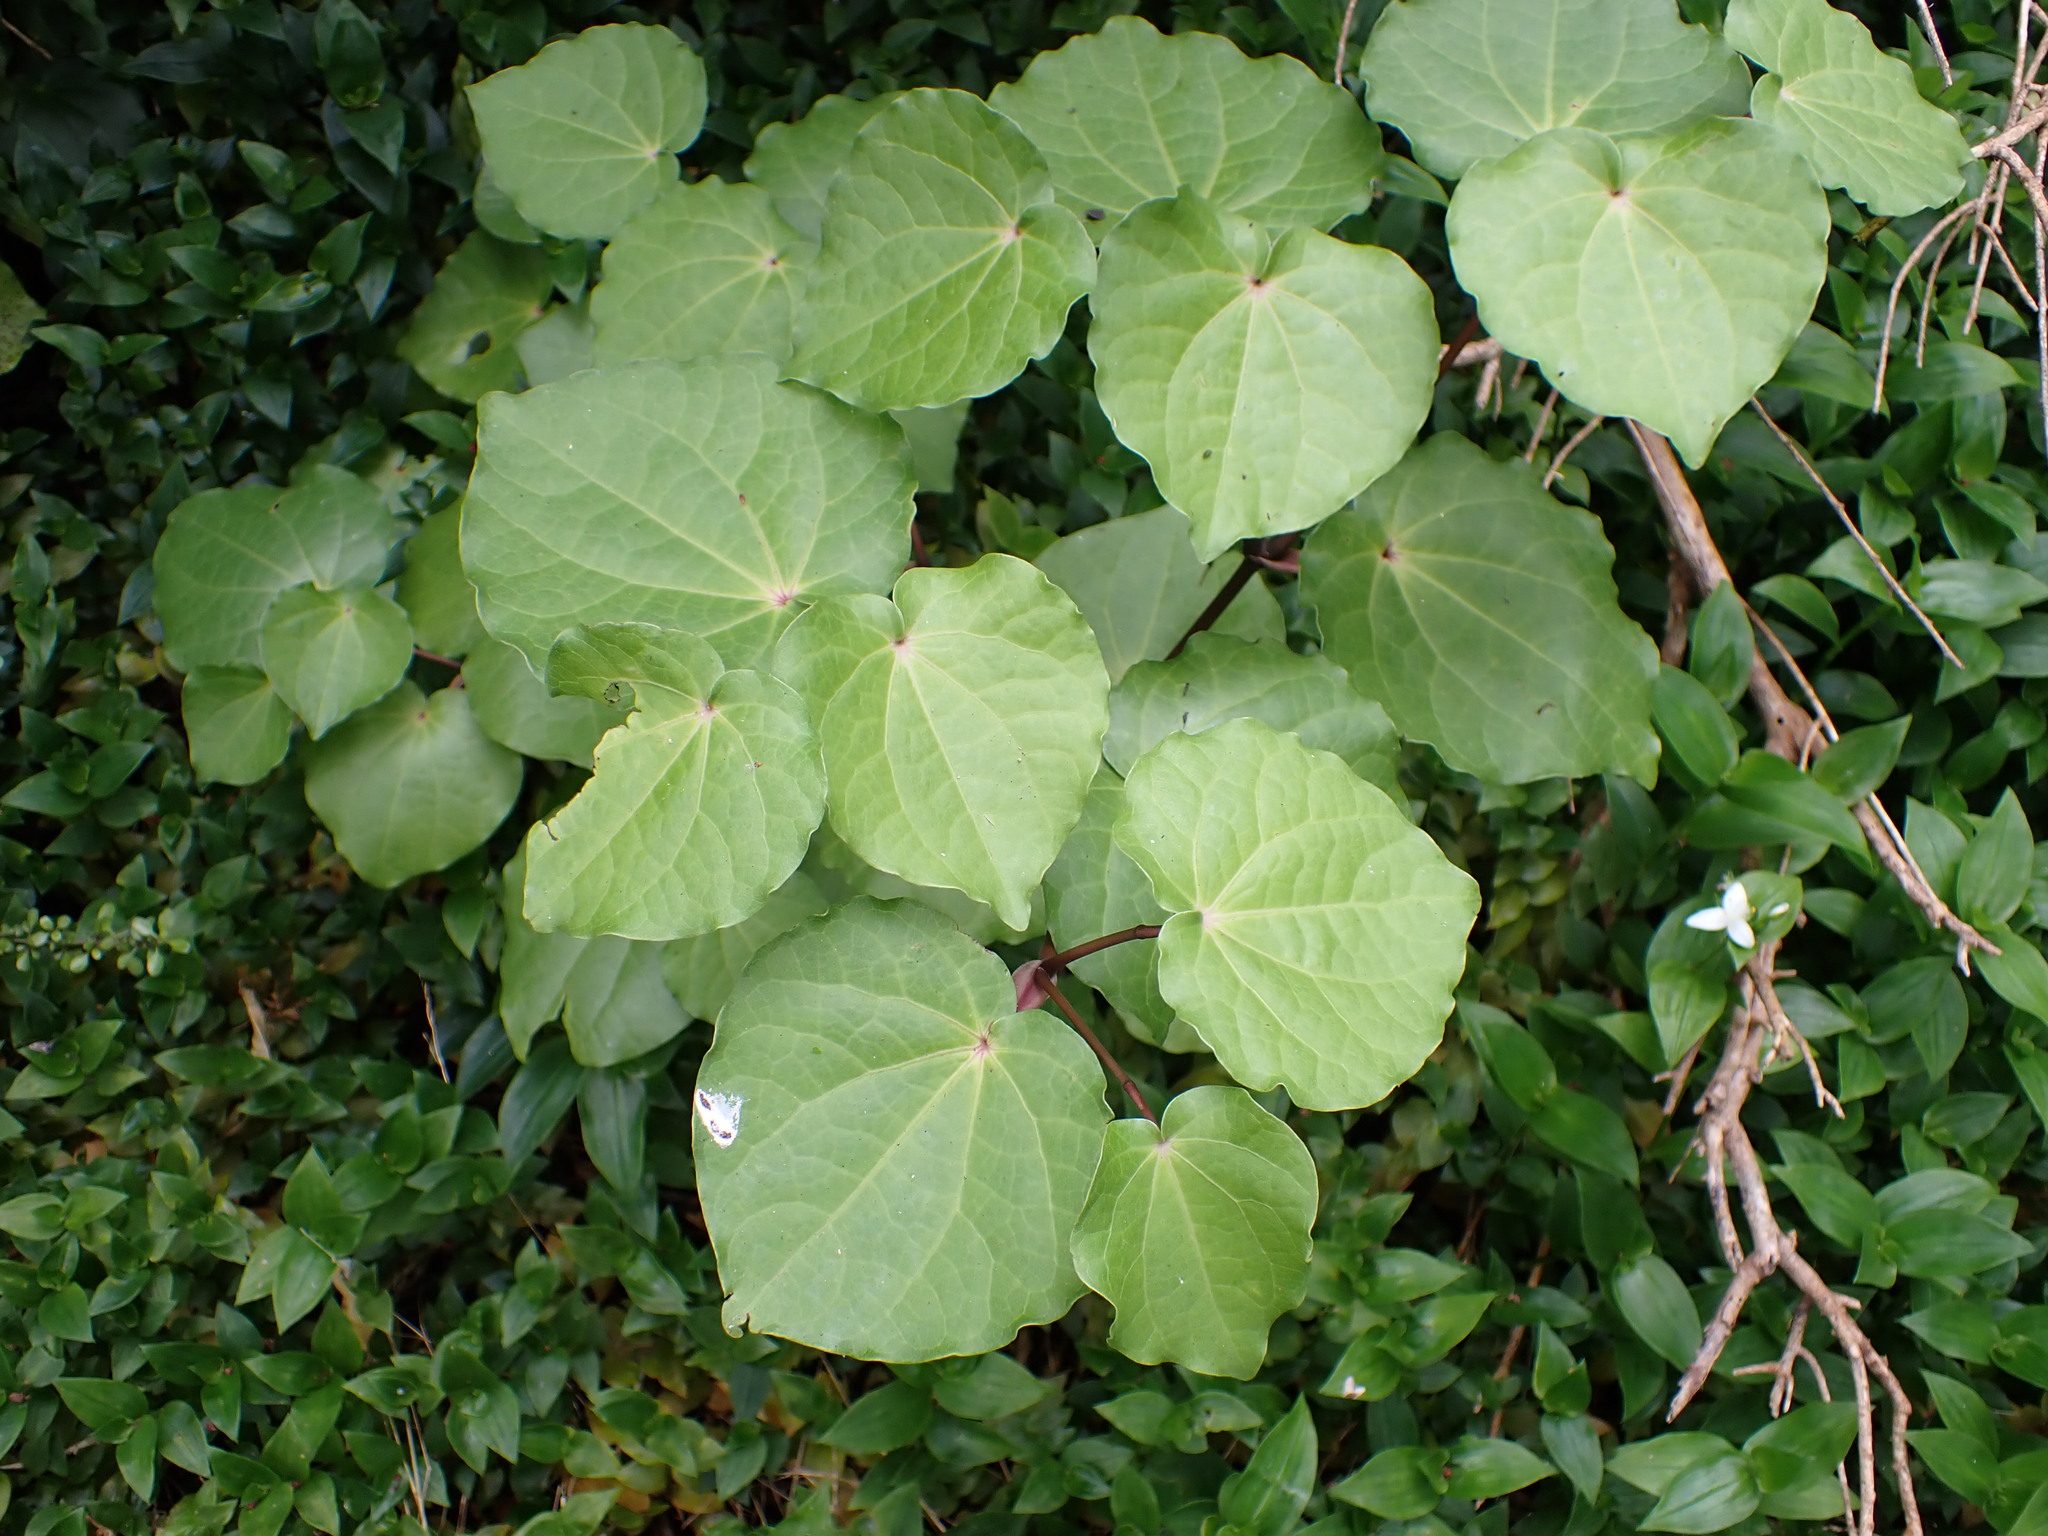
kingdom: Plantae
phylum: Tracheophyta
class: Magnoliopsida
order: Piperales
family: Piperaceae
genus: Macropiper
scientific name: Macropiper excelsum
